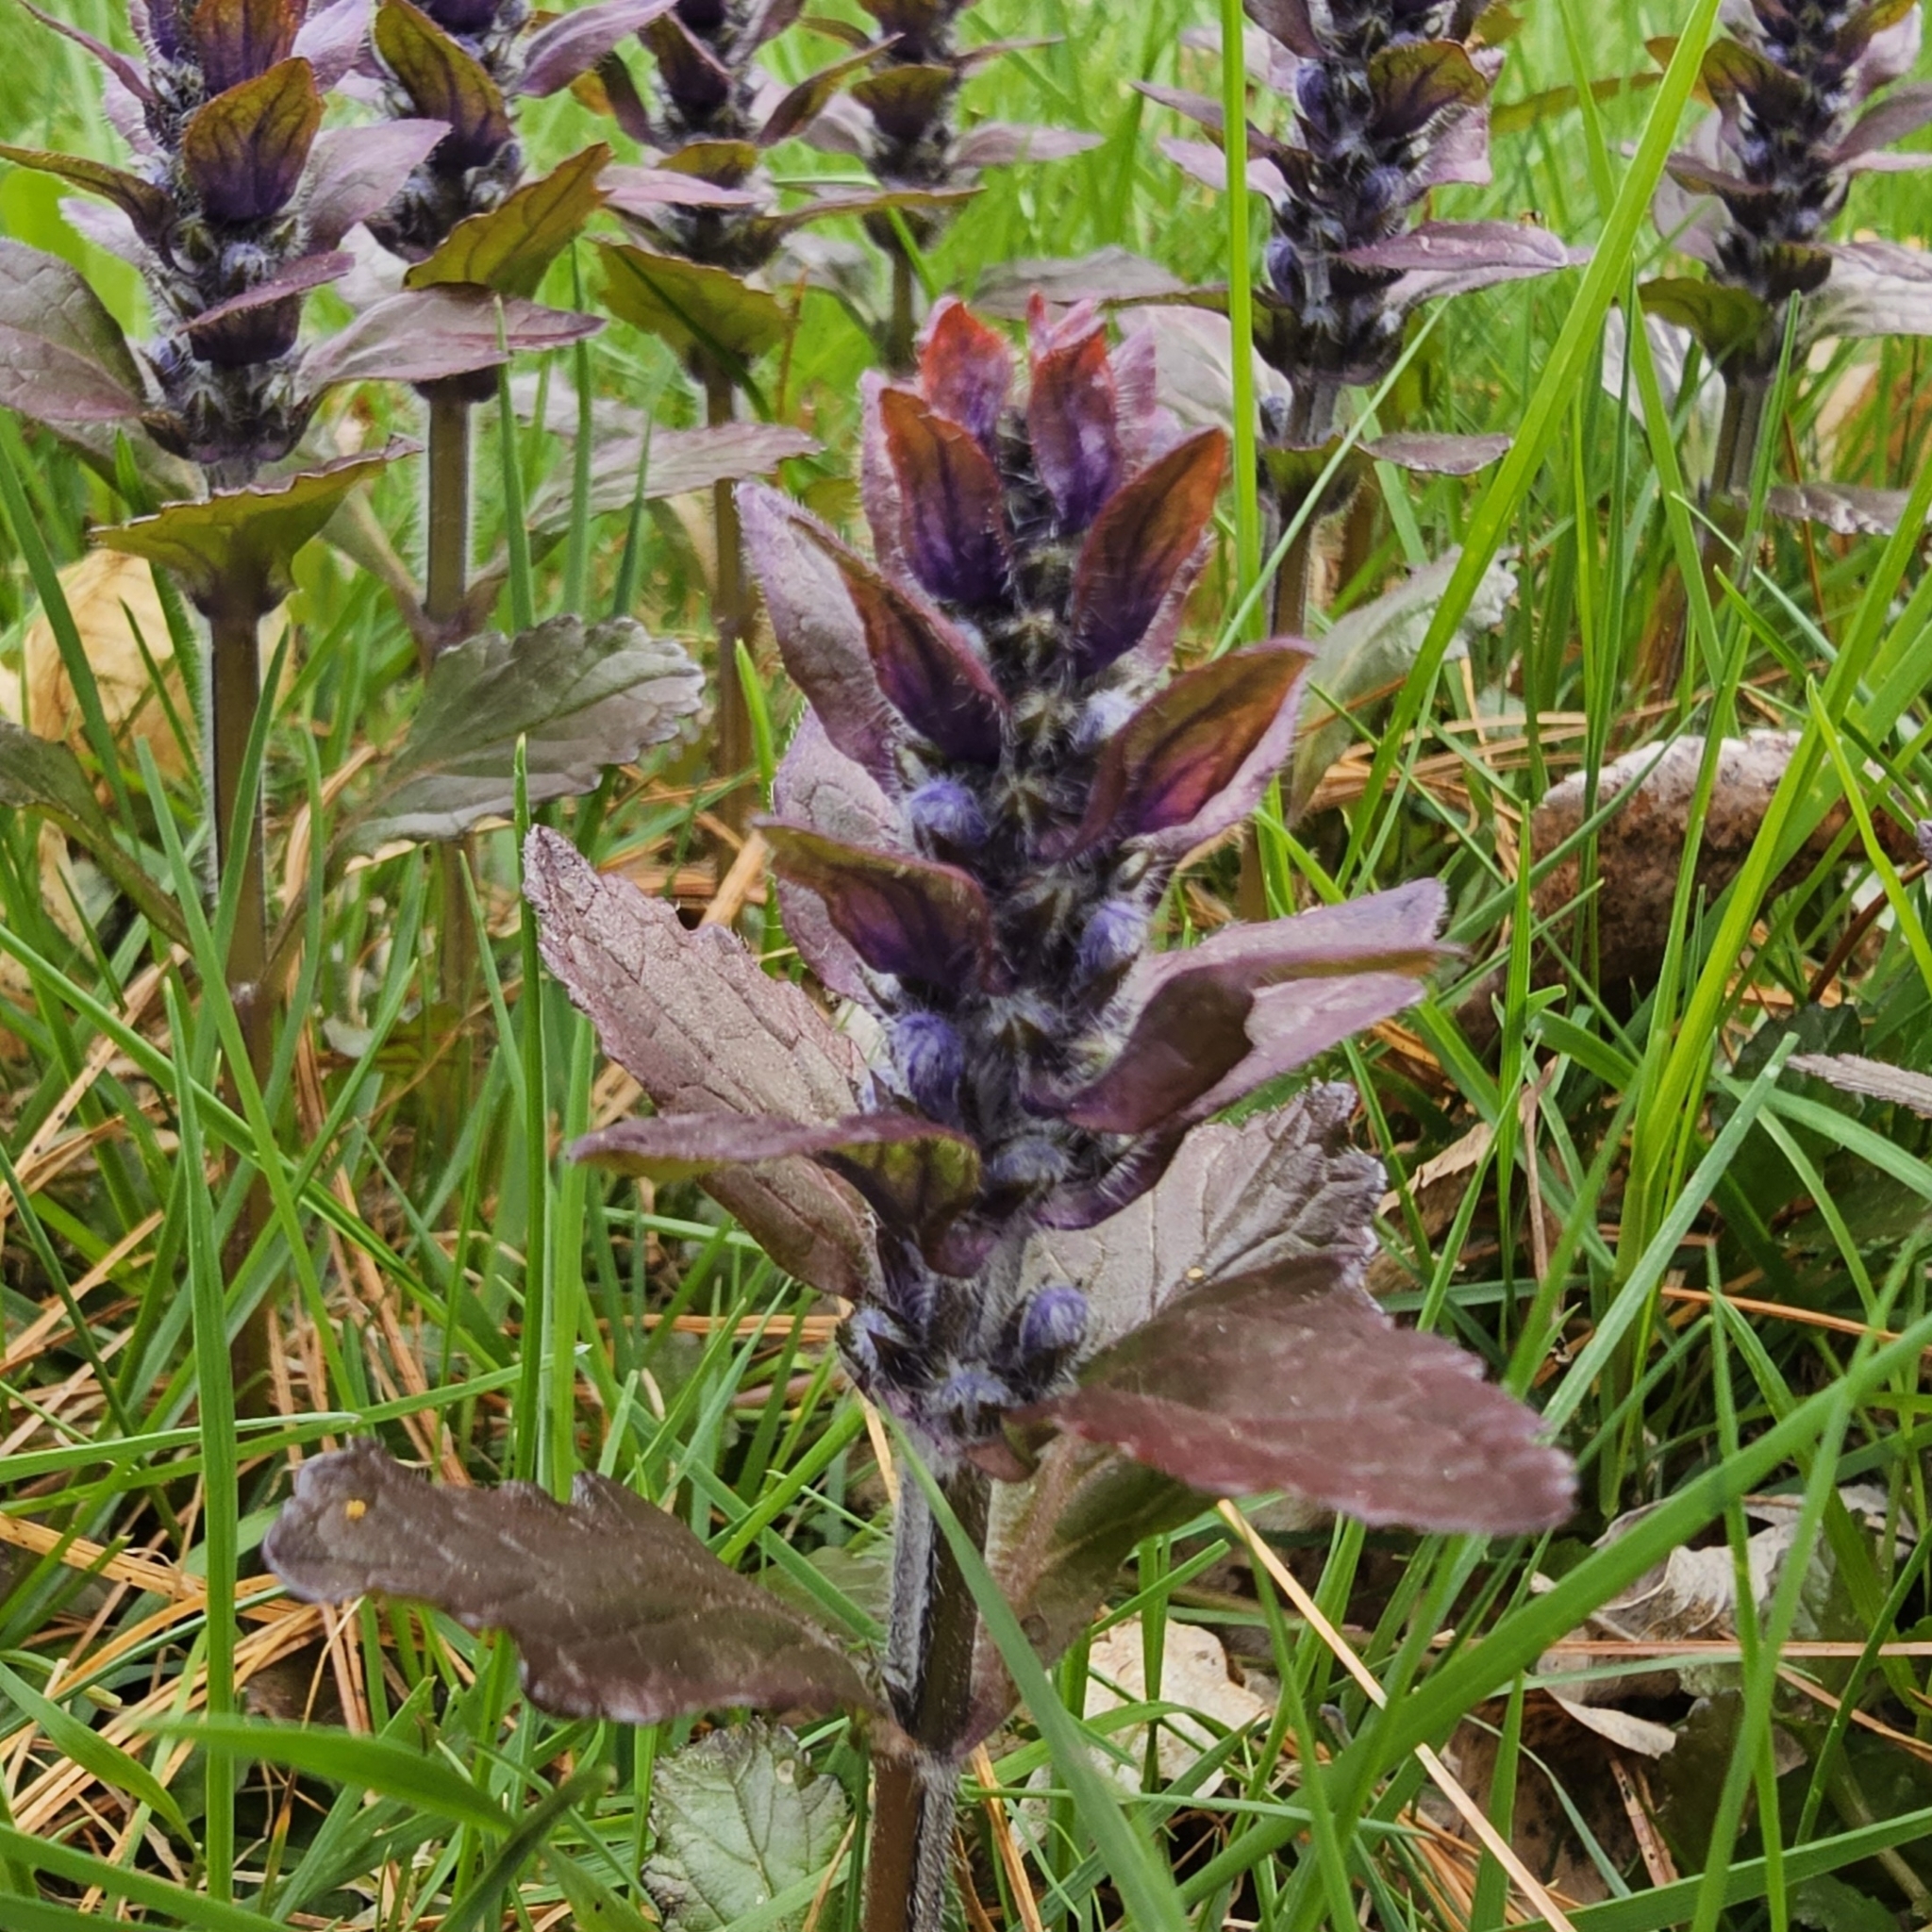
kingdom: Plantae
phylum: Tracheophyta
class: Magnoliopsida
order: Lamiales
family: Lamiaceae
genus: Ajuga
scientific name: Ajuga reptans
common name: Bugle
